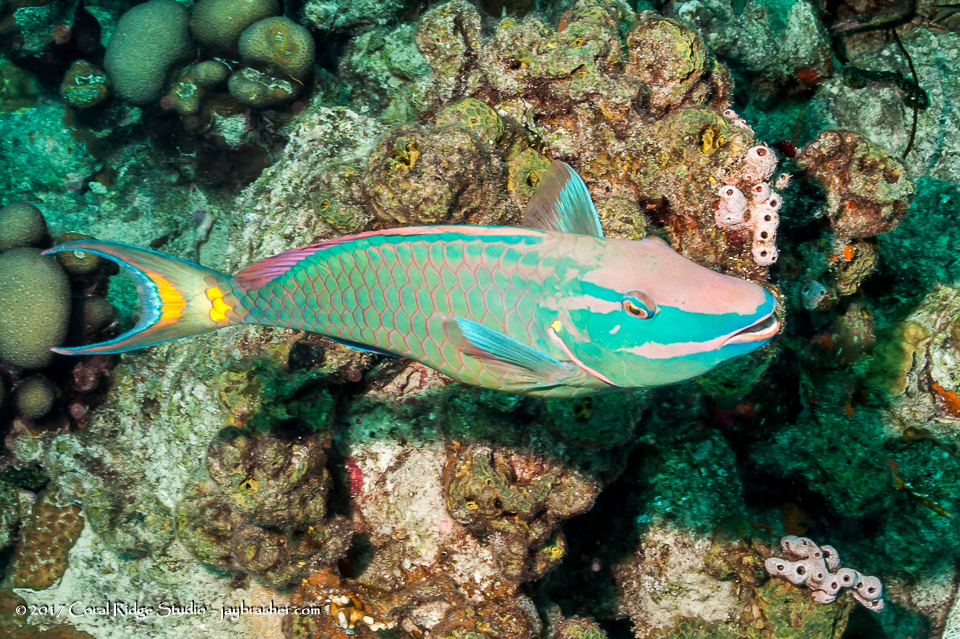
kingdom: Animalia
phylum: Chordata
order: Perciformes
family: Scaridae
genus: Sparisoma
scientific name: Sparisoma viride
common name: Stoplight parrotfish
